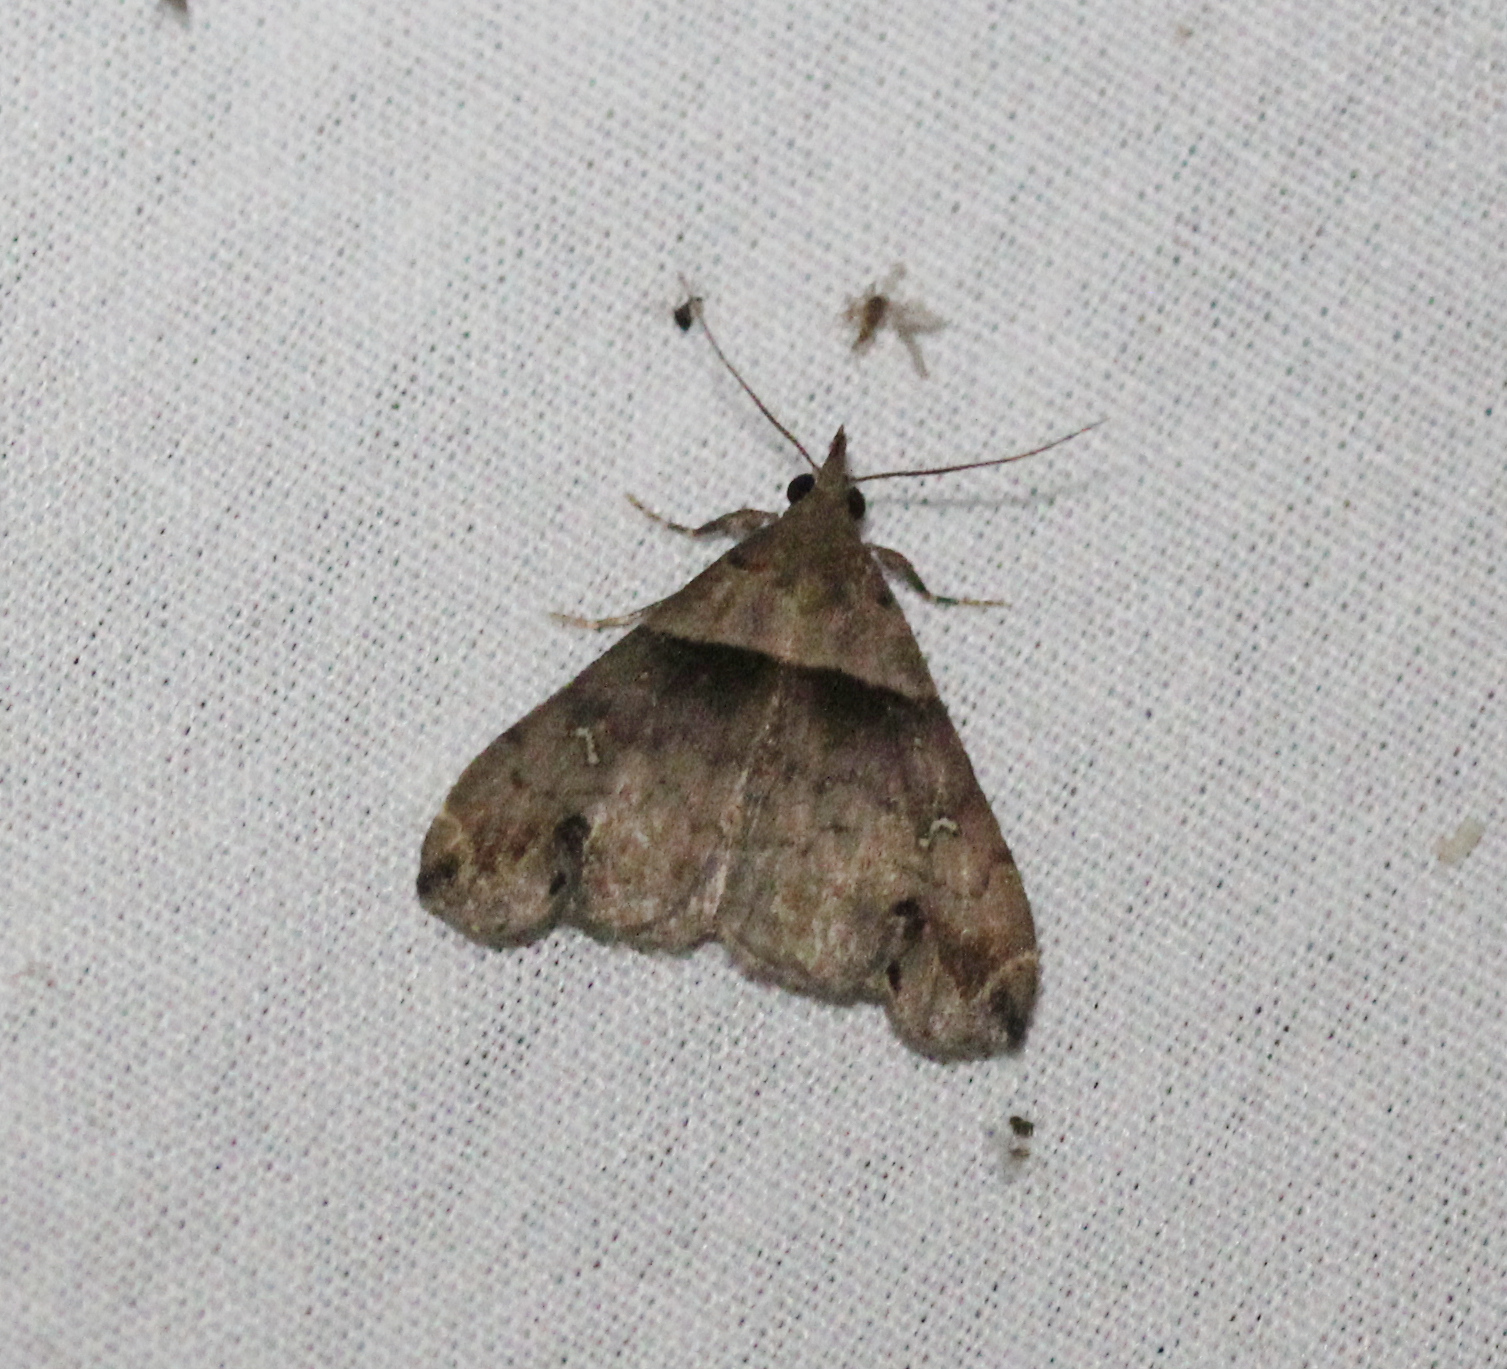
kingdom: Animalia
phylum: Arthropoda
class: Insecta
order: Lepidoptera
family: Erebidae
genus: Lascoria
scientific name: Lascoria ambigualis
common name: Ambiguous moth
